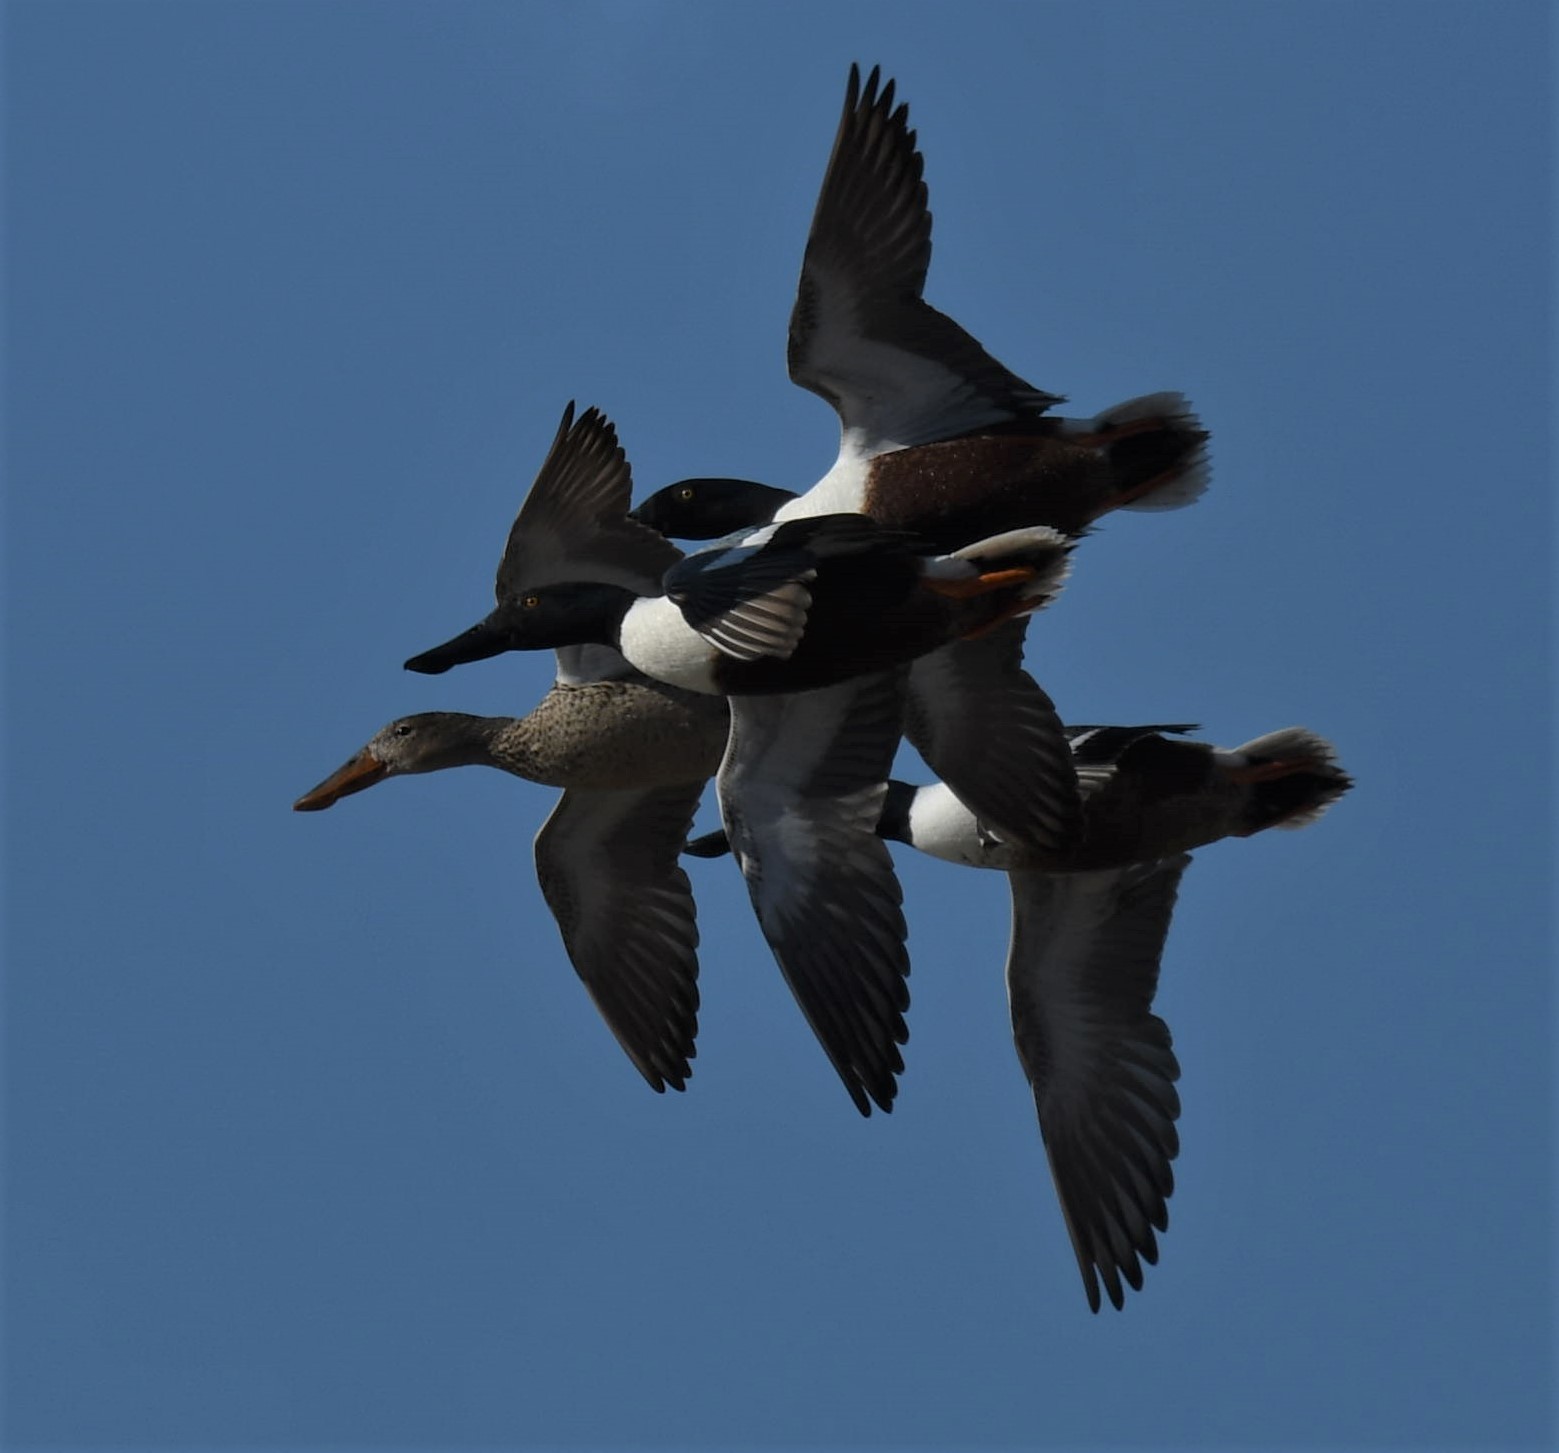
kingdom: Animalia
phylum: Chordata
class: Aves
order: Anseriformes
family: Anatidae
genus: Spatula
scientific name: Spatula clypeata
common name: Northern shoveler
